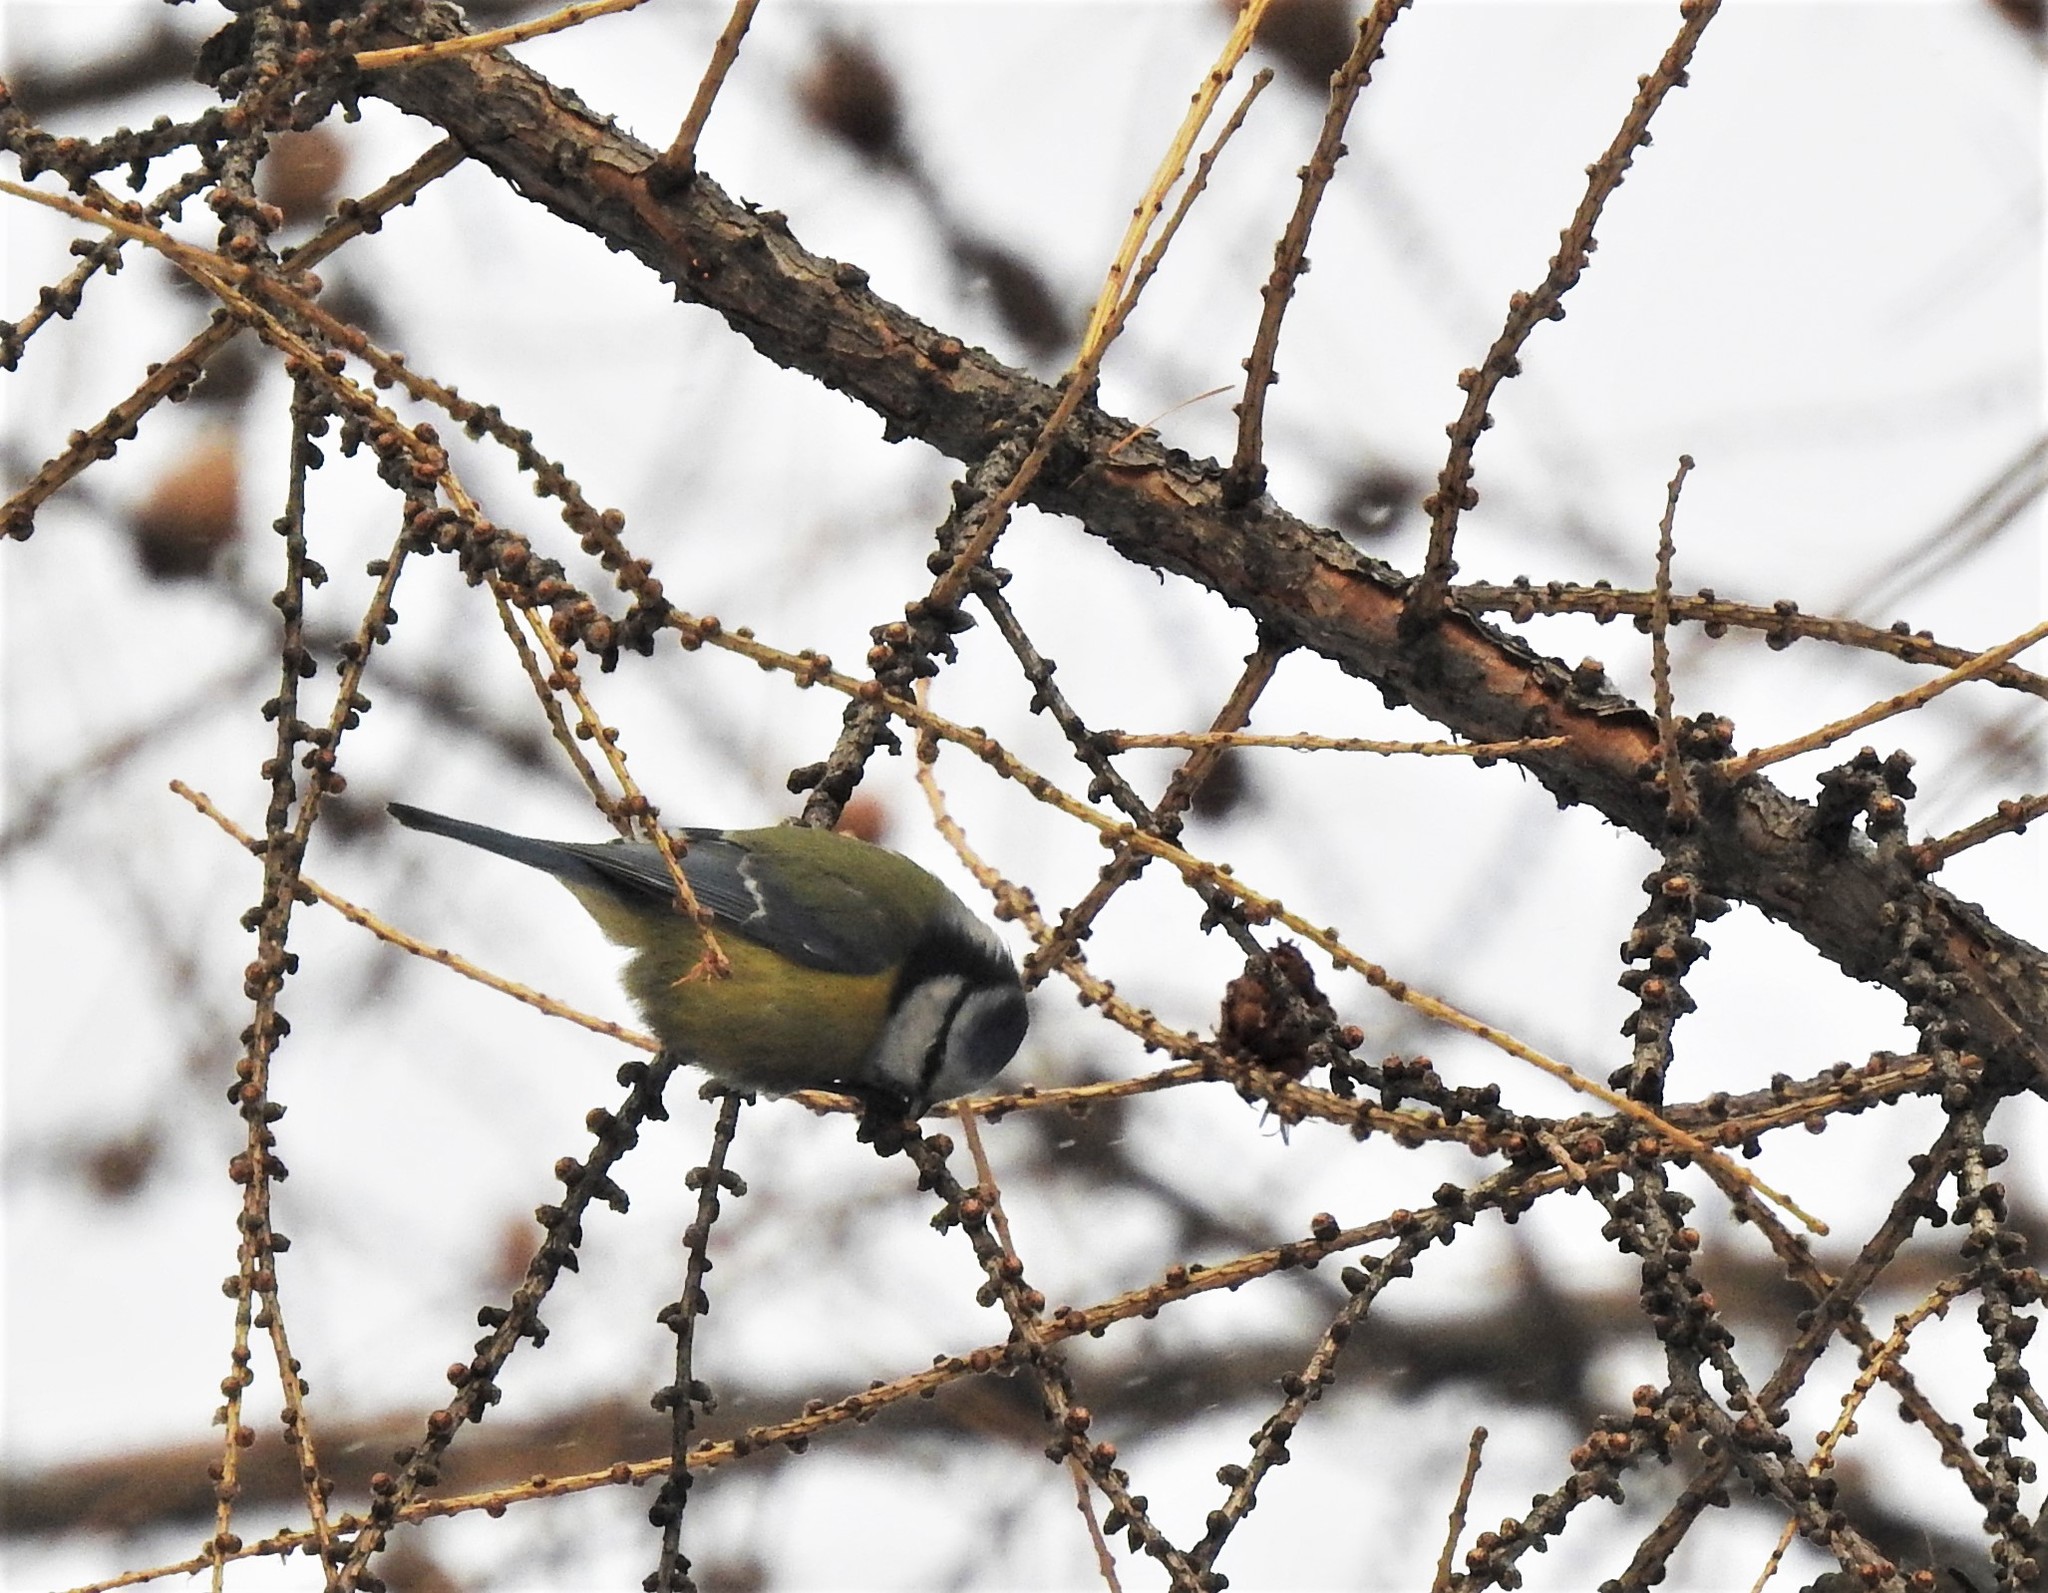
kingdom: Animalia
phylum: Chordata
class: Aves
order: Passeriformes
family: Paridae
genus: Cyanistes
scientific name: Cyanistes caeruleus
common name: Eurasian blue tit
